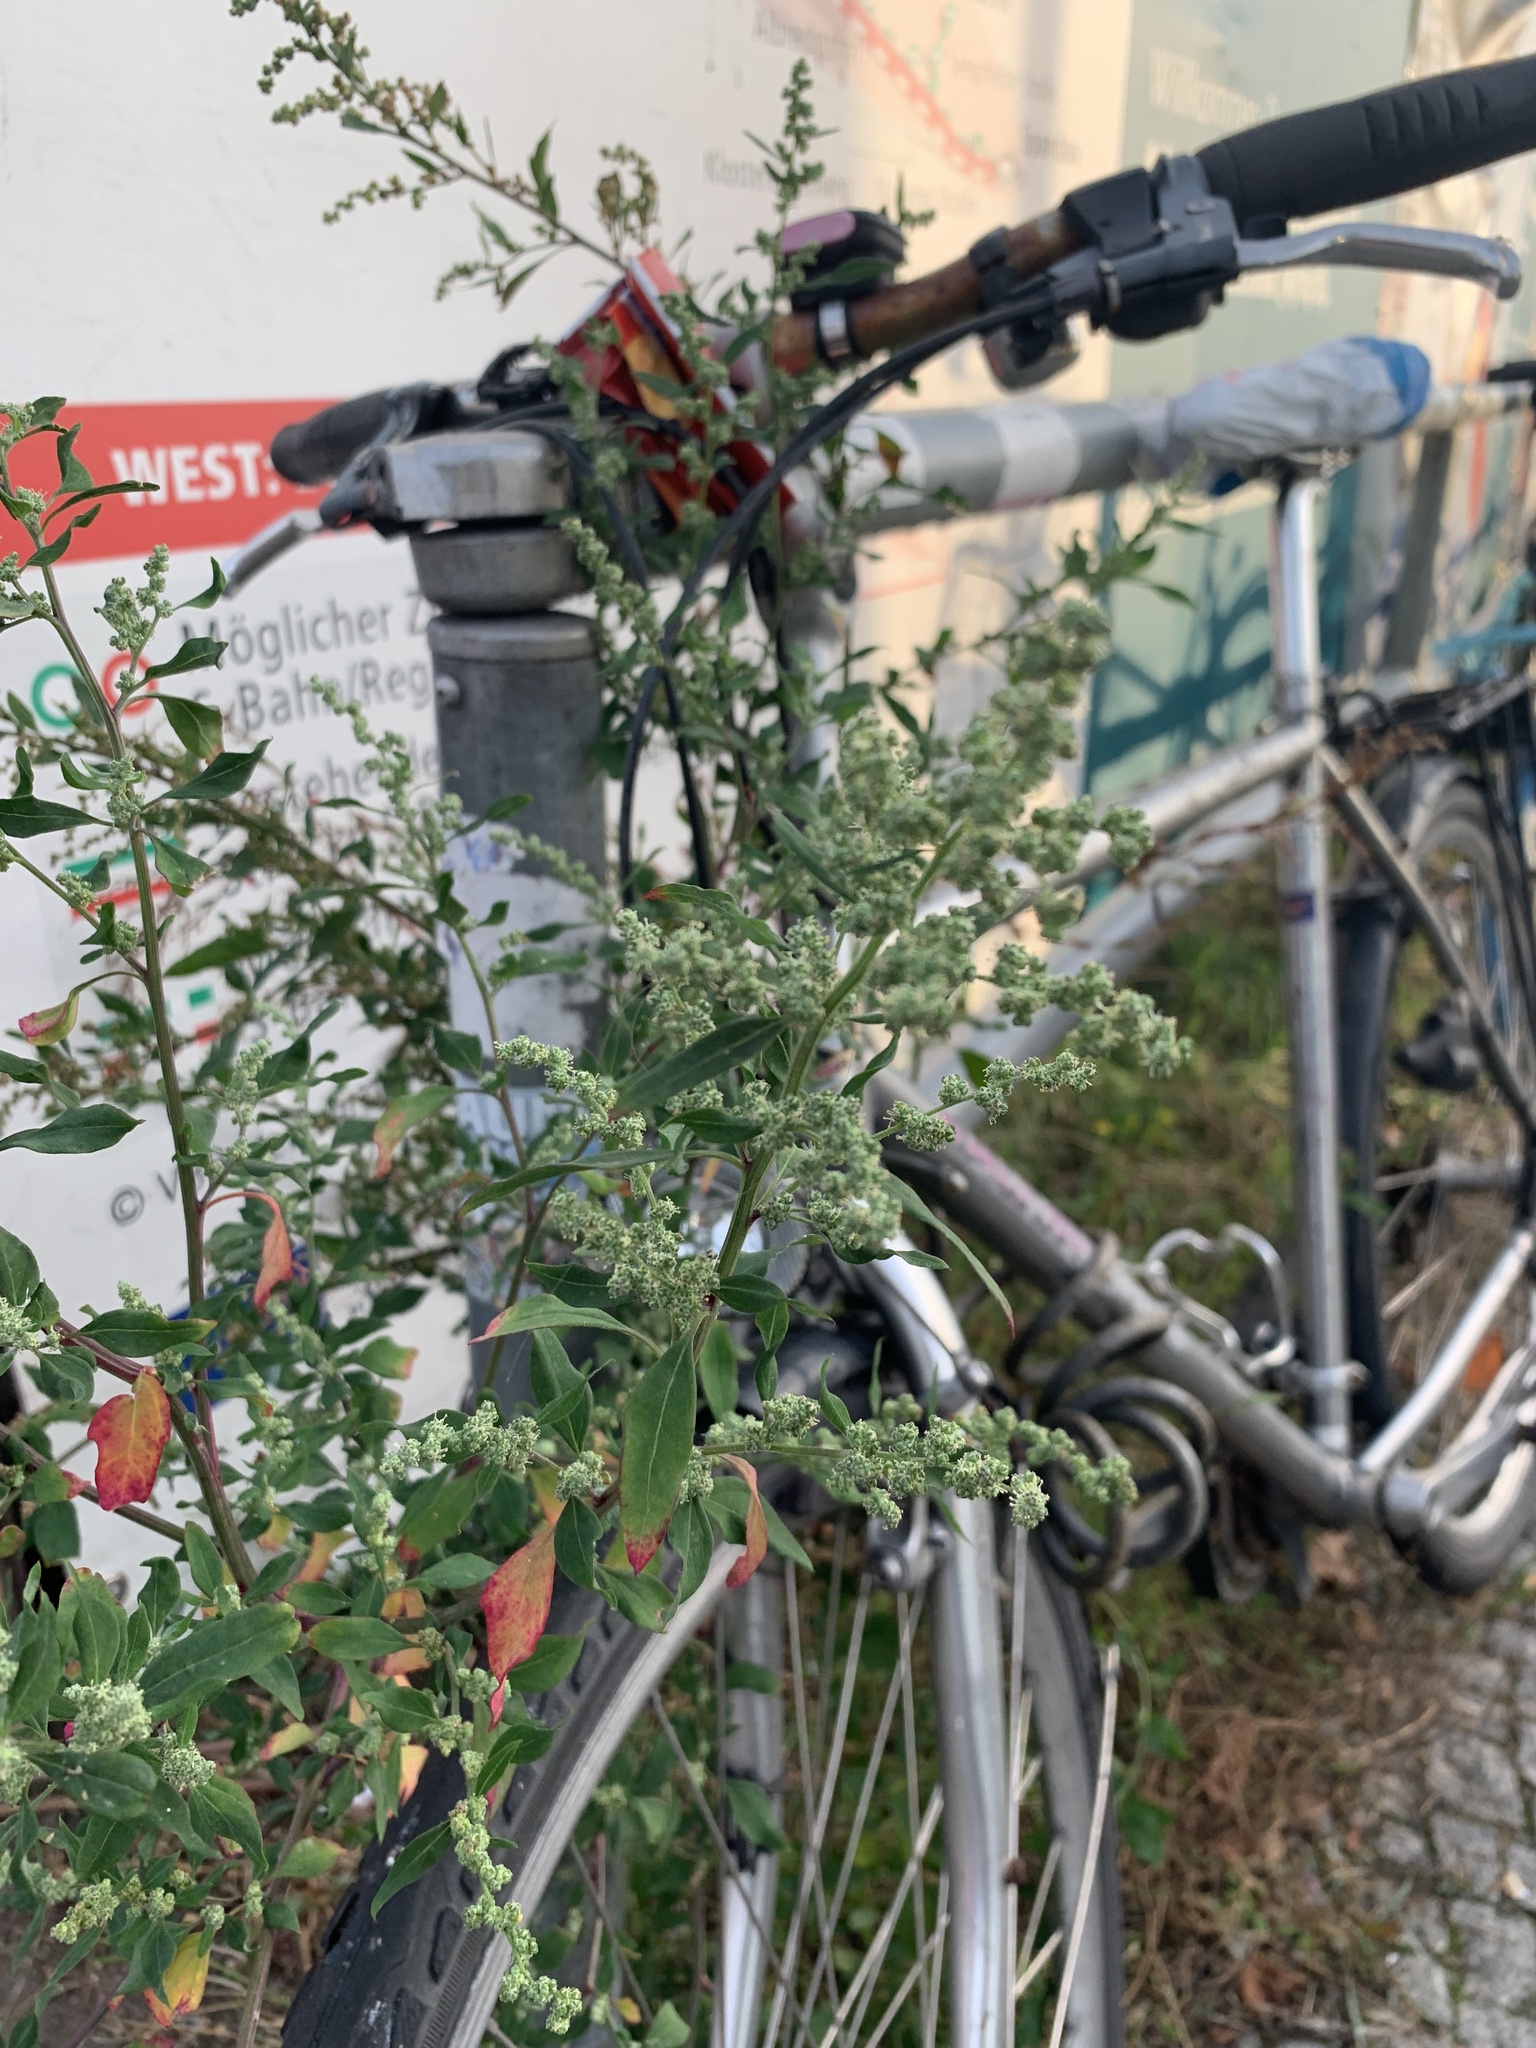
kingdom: Plantae
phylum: Tracheophyta
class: Magnoliopsida
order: Caryophyllales
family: Amaranthaceae
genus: Chenopodium
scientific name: Chenopodium album
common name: Fat-hen
